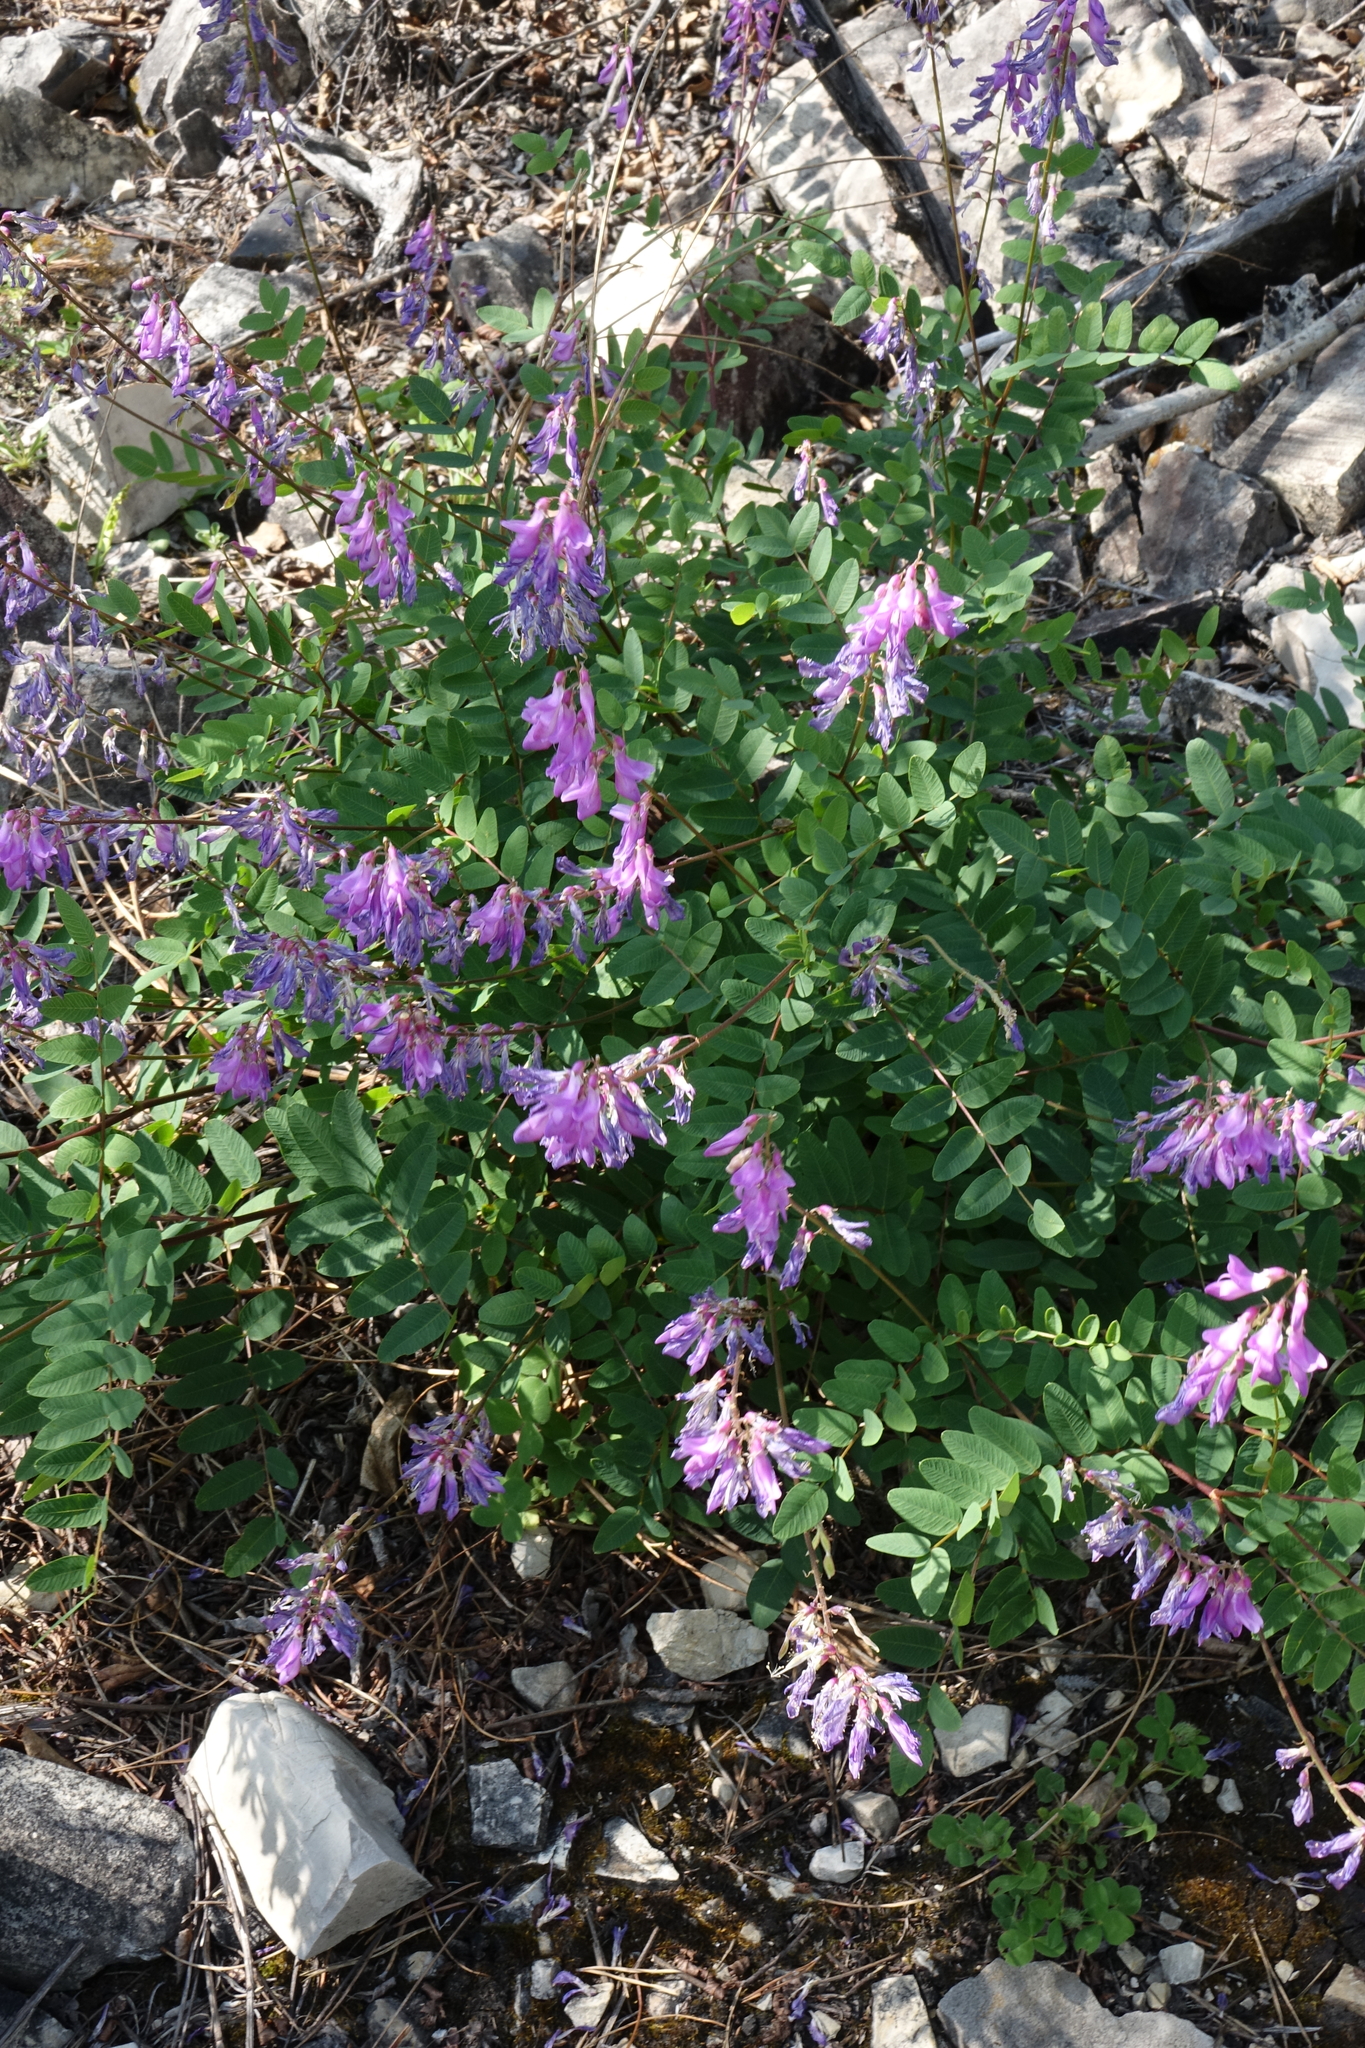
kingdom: Plantae
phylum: Tracheophyta
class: Magnoliopsida
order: Fabales
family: Fabaceae
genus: Hedysarum
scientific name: Hedysarum branthii
